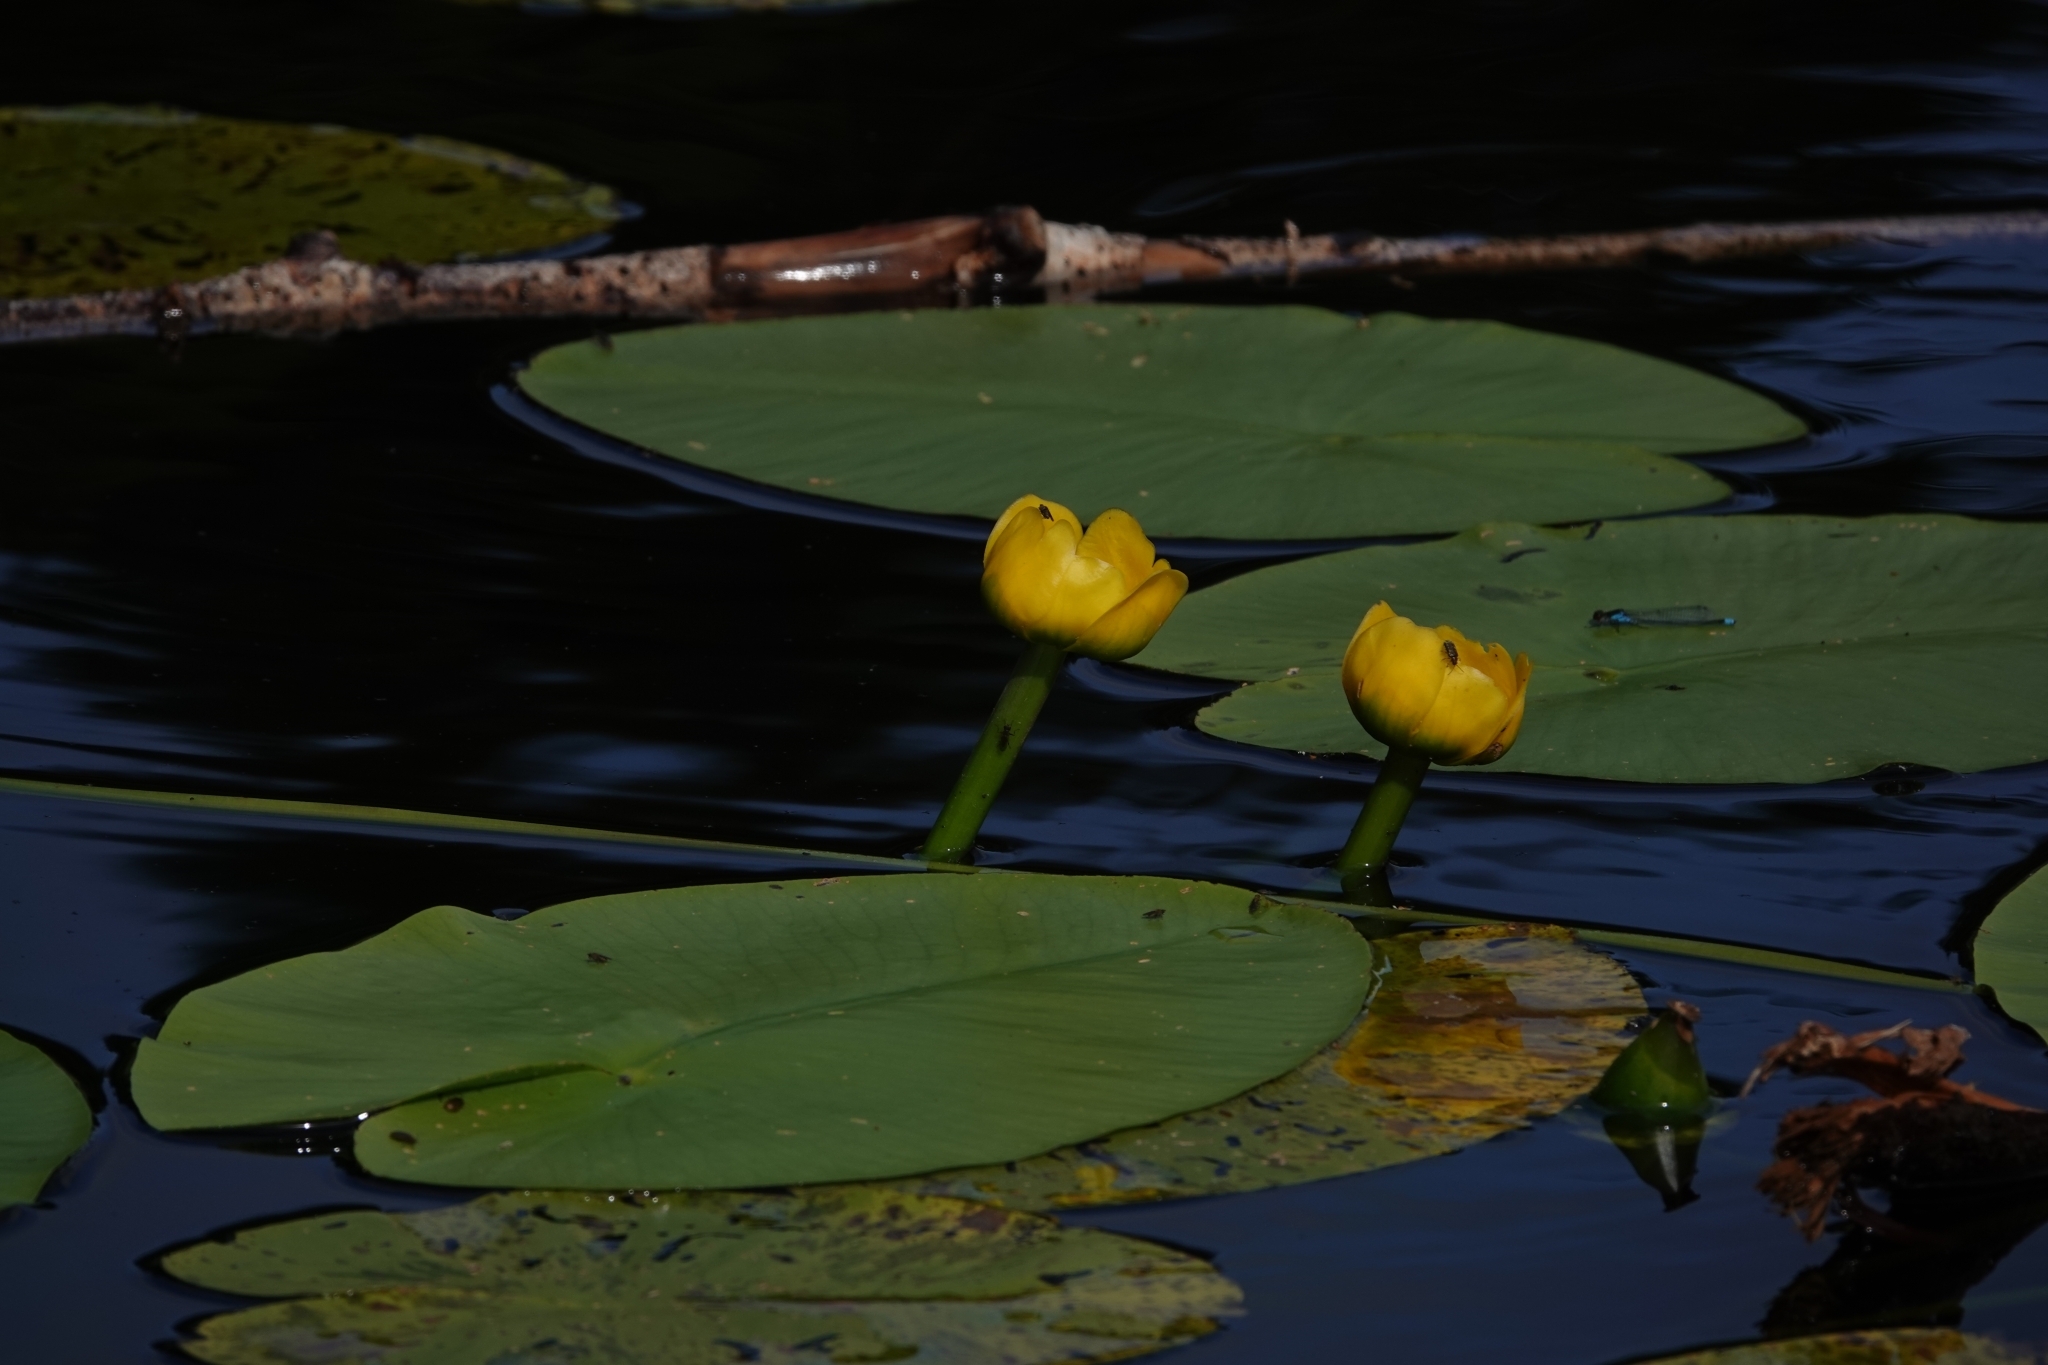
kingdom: Plantae
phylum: Tracheophyta
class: Magnoliopsida
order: Nymphaeales
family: Nymphaeaceae
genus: Nuphar
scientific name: Nuphar lutea
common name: Yellow water-lily
